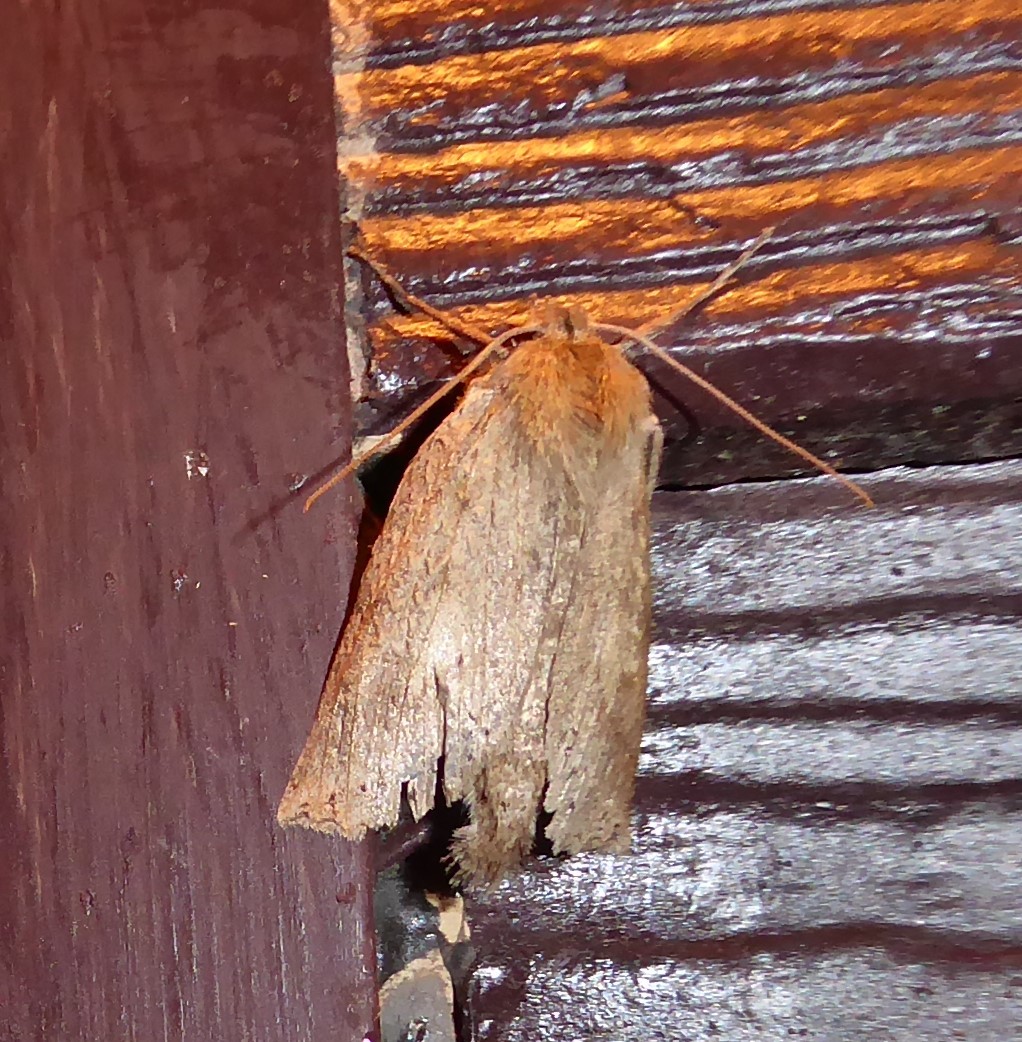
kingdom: Animalia
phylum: Arthropoda
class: Insecta
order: Lepidoptera
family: Geometridae
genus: Declana
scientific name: Declana leptomera
